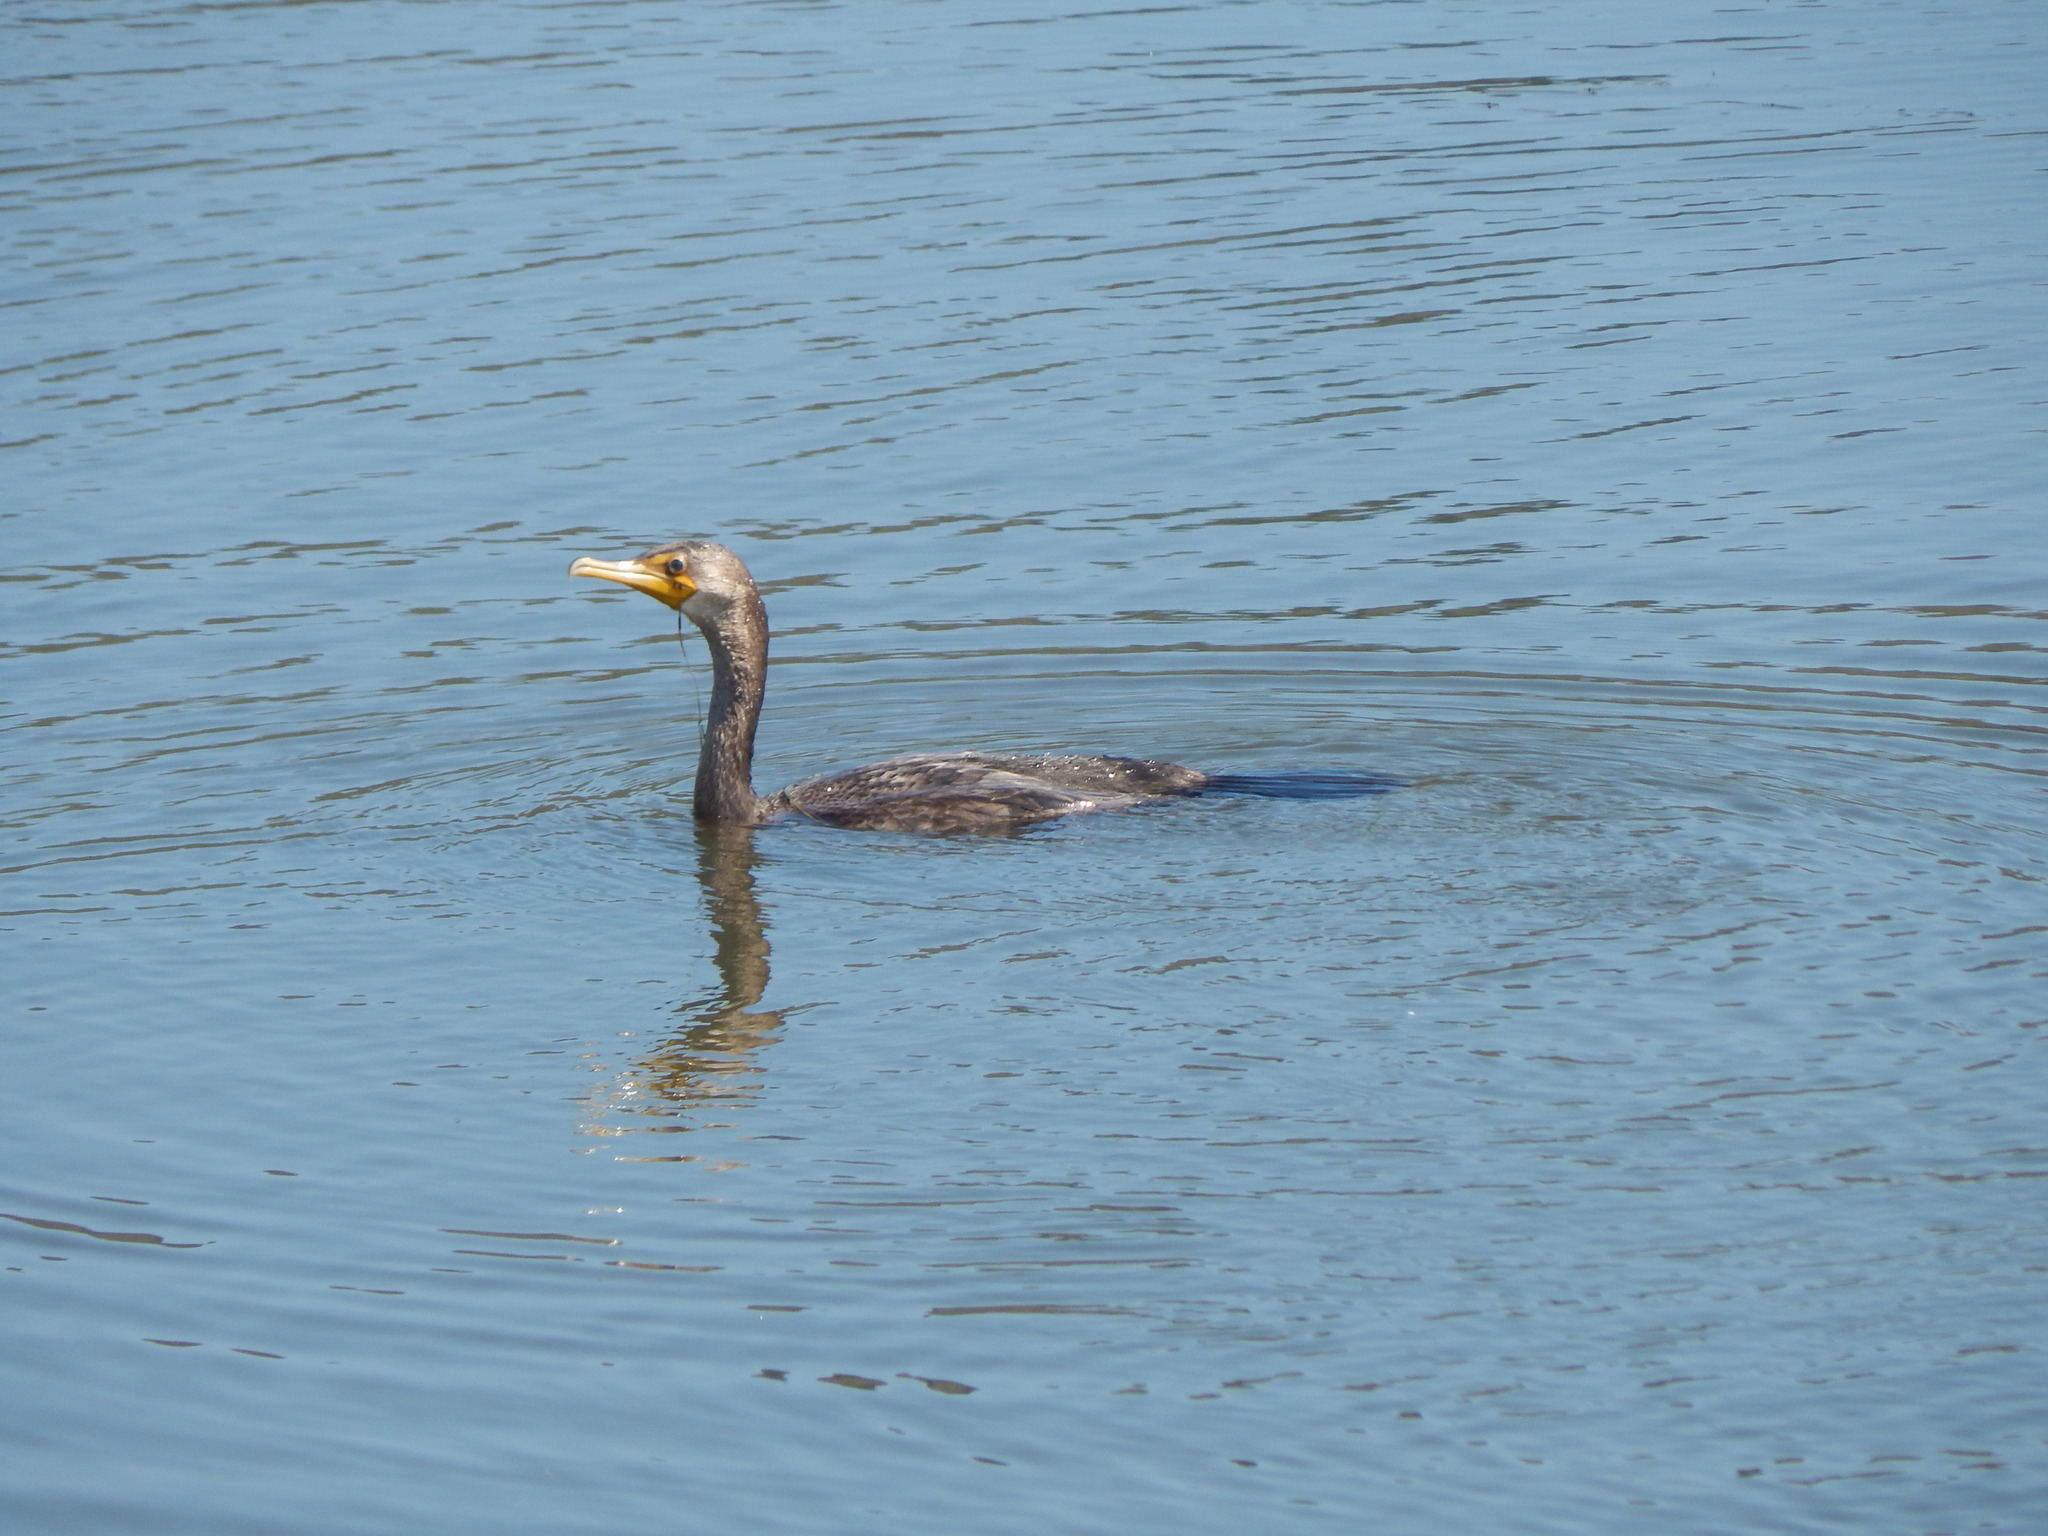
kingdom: Animalia
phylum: Chordata
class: Aves
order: Suliformes
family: Phalacrocoracidae
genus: Phalacrocorax
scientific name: Phalacrocorax auritus
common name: Double-crested cormorant
